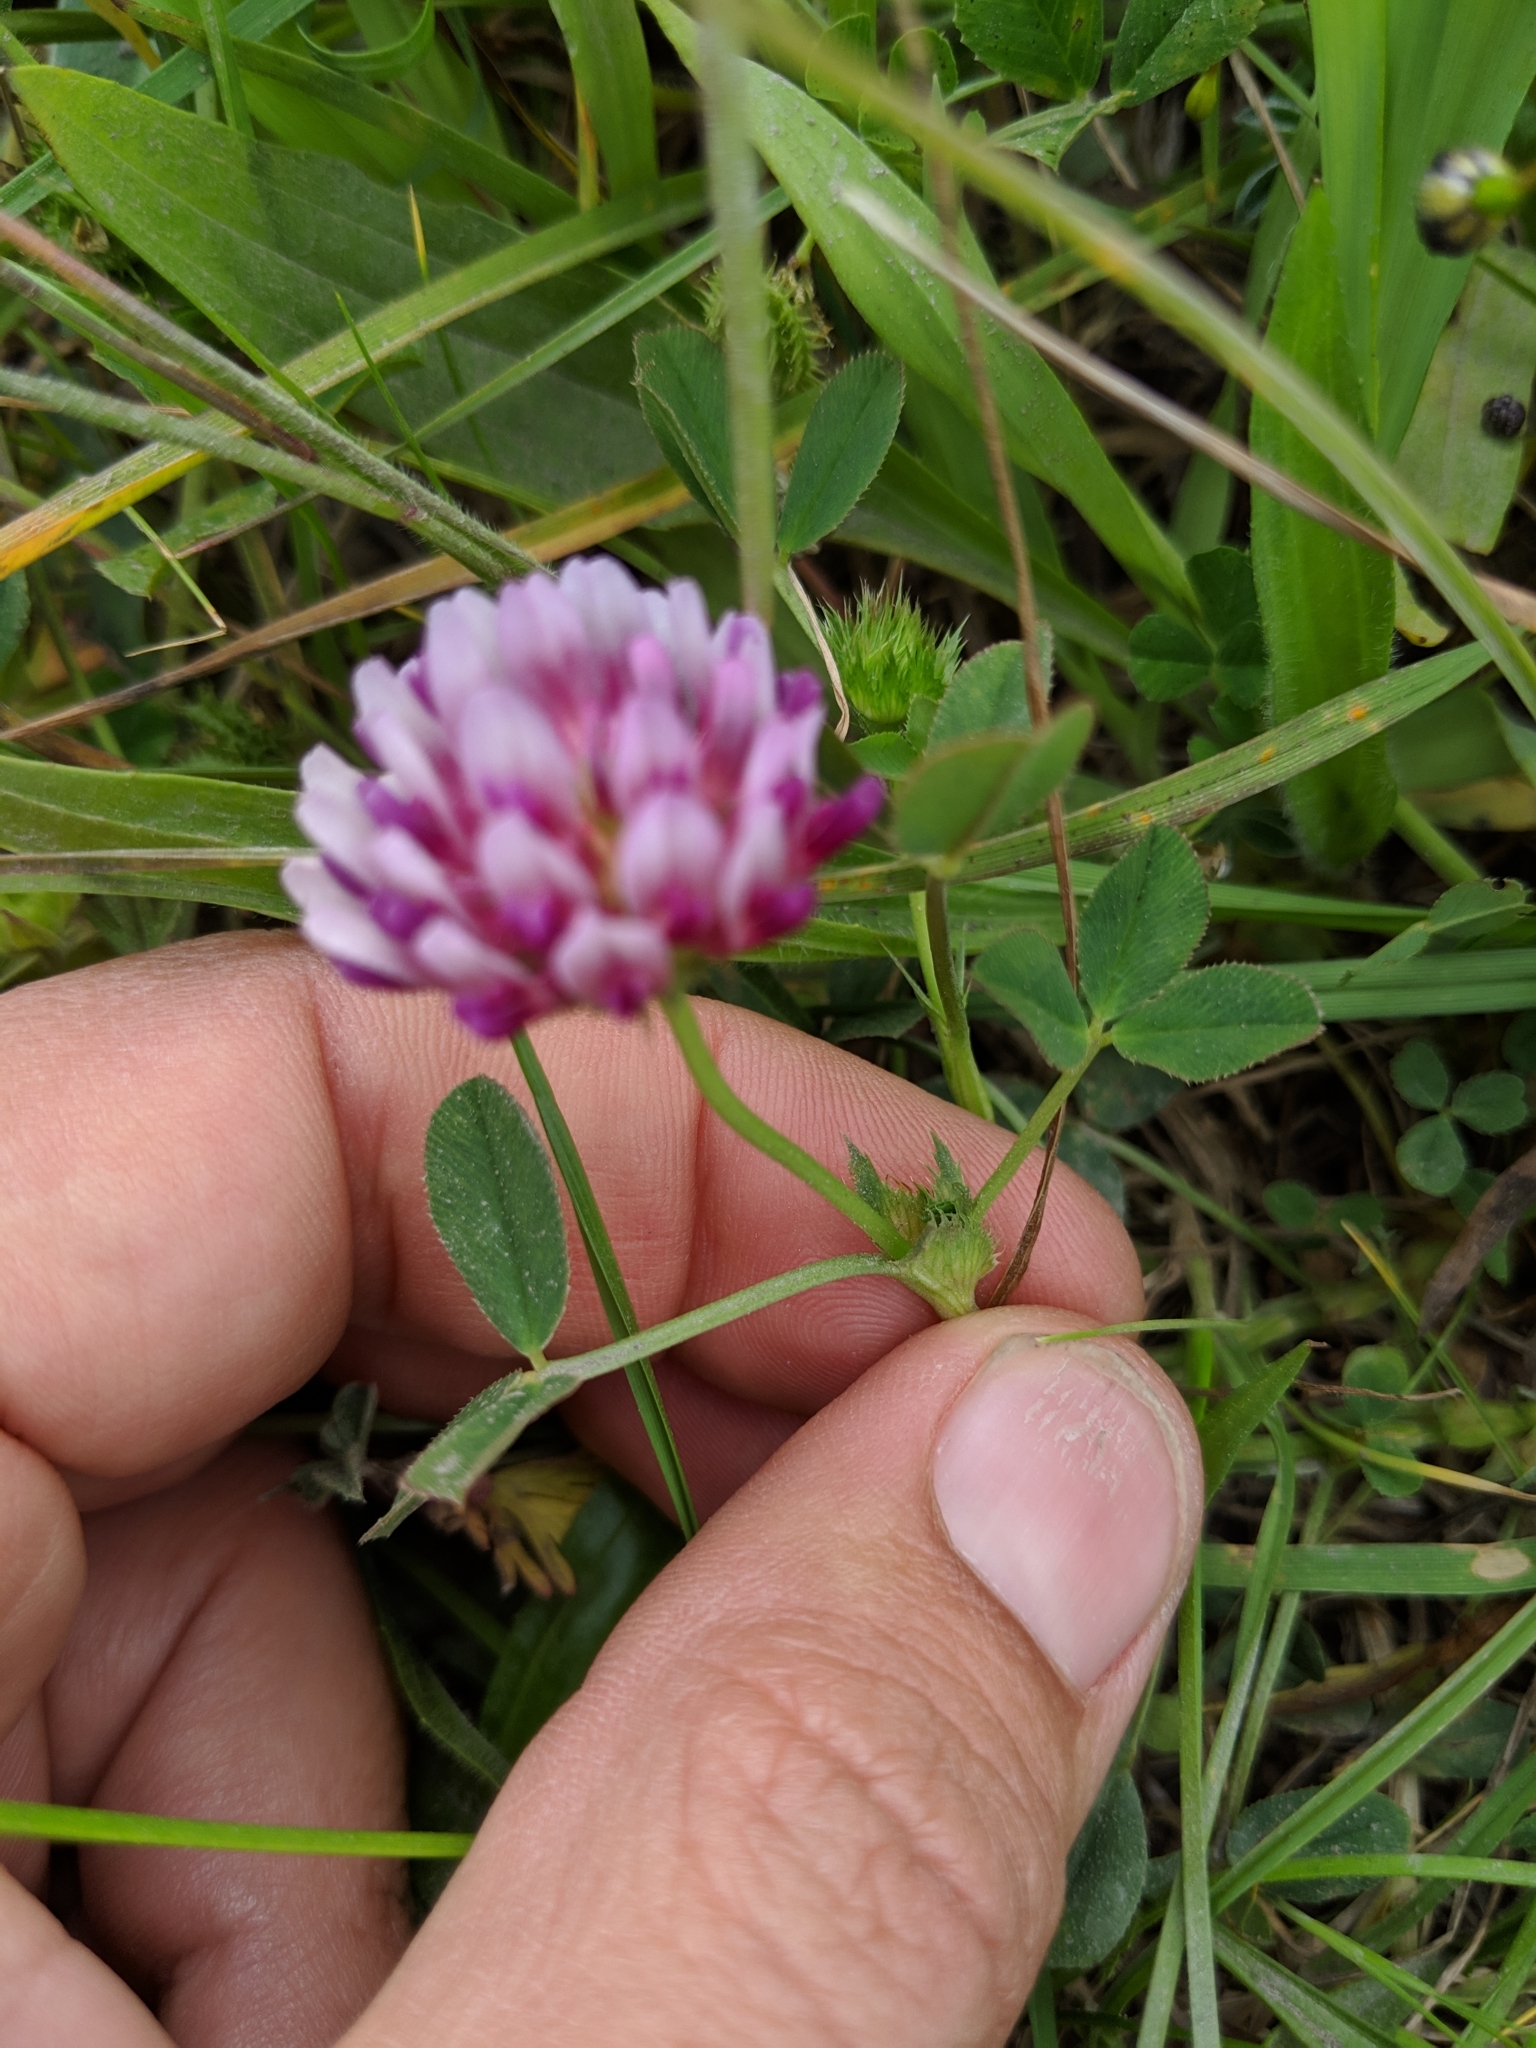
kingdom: Plantae
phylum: Tracheophyta
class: Magnoliopsida
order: Fabales
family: Fabaceae
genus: Trifolium
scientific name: Trifolium wormskioldii
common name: Springbank clover
